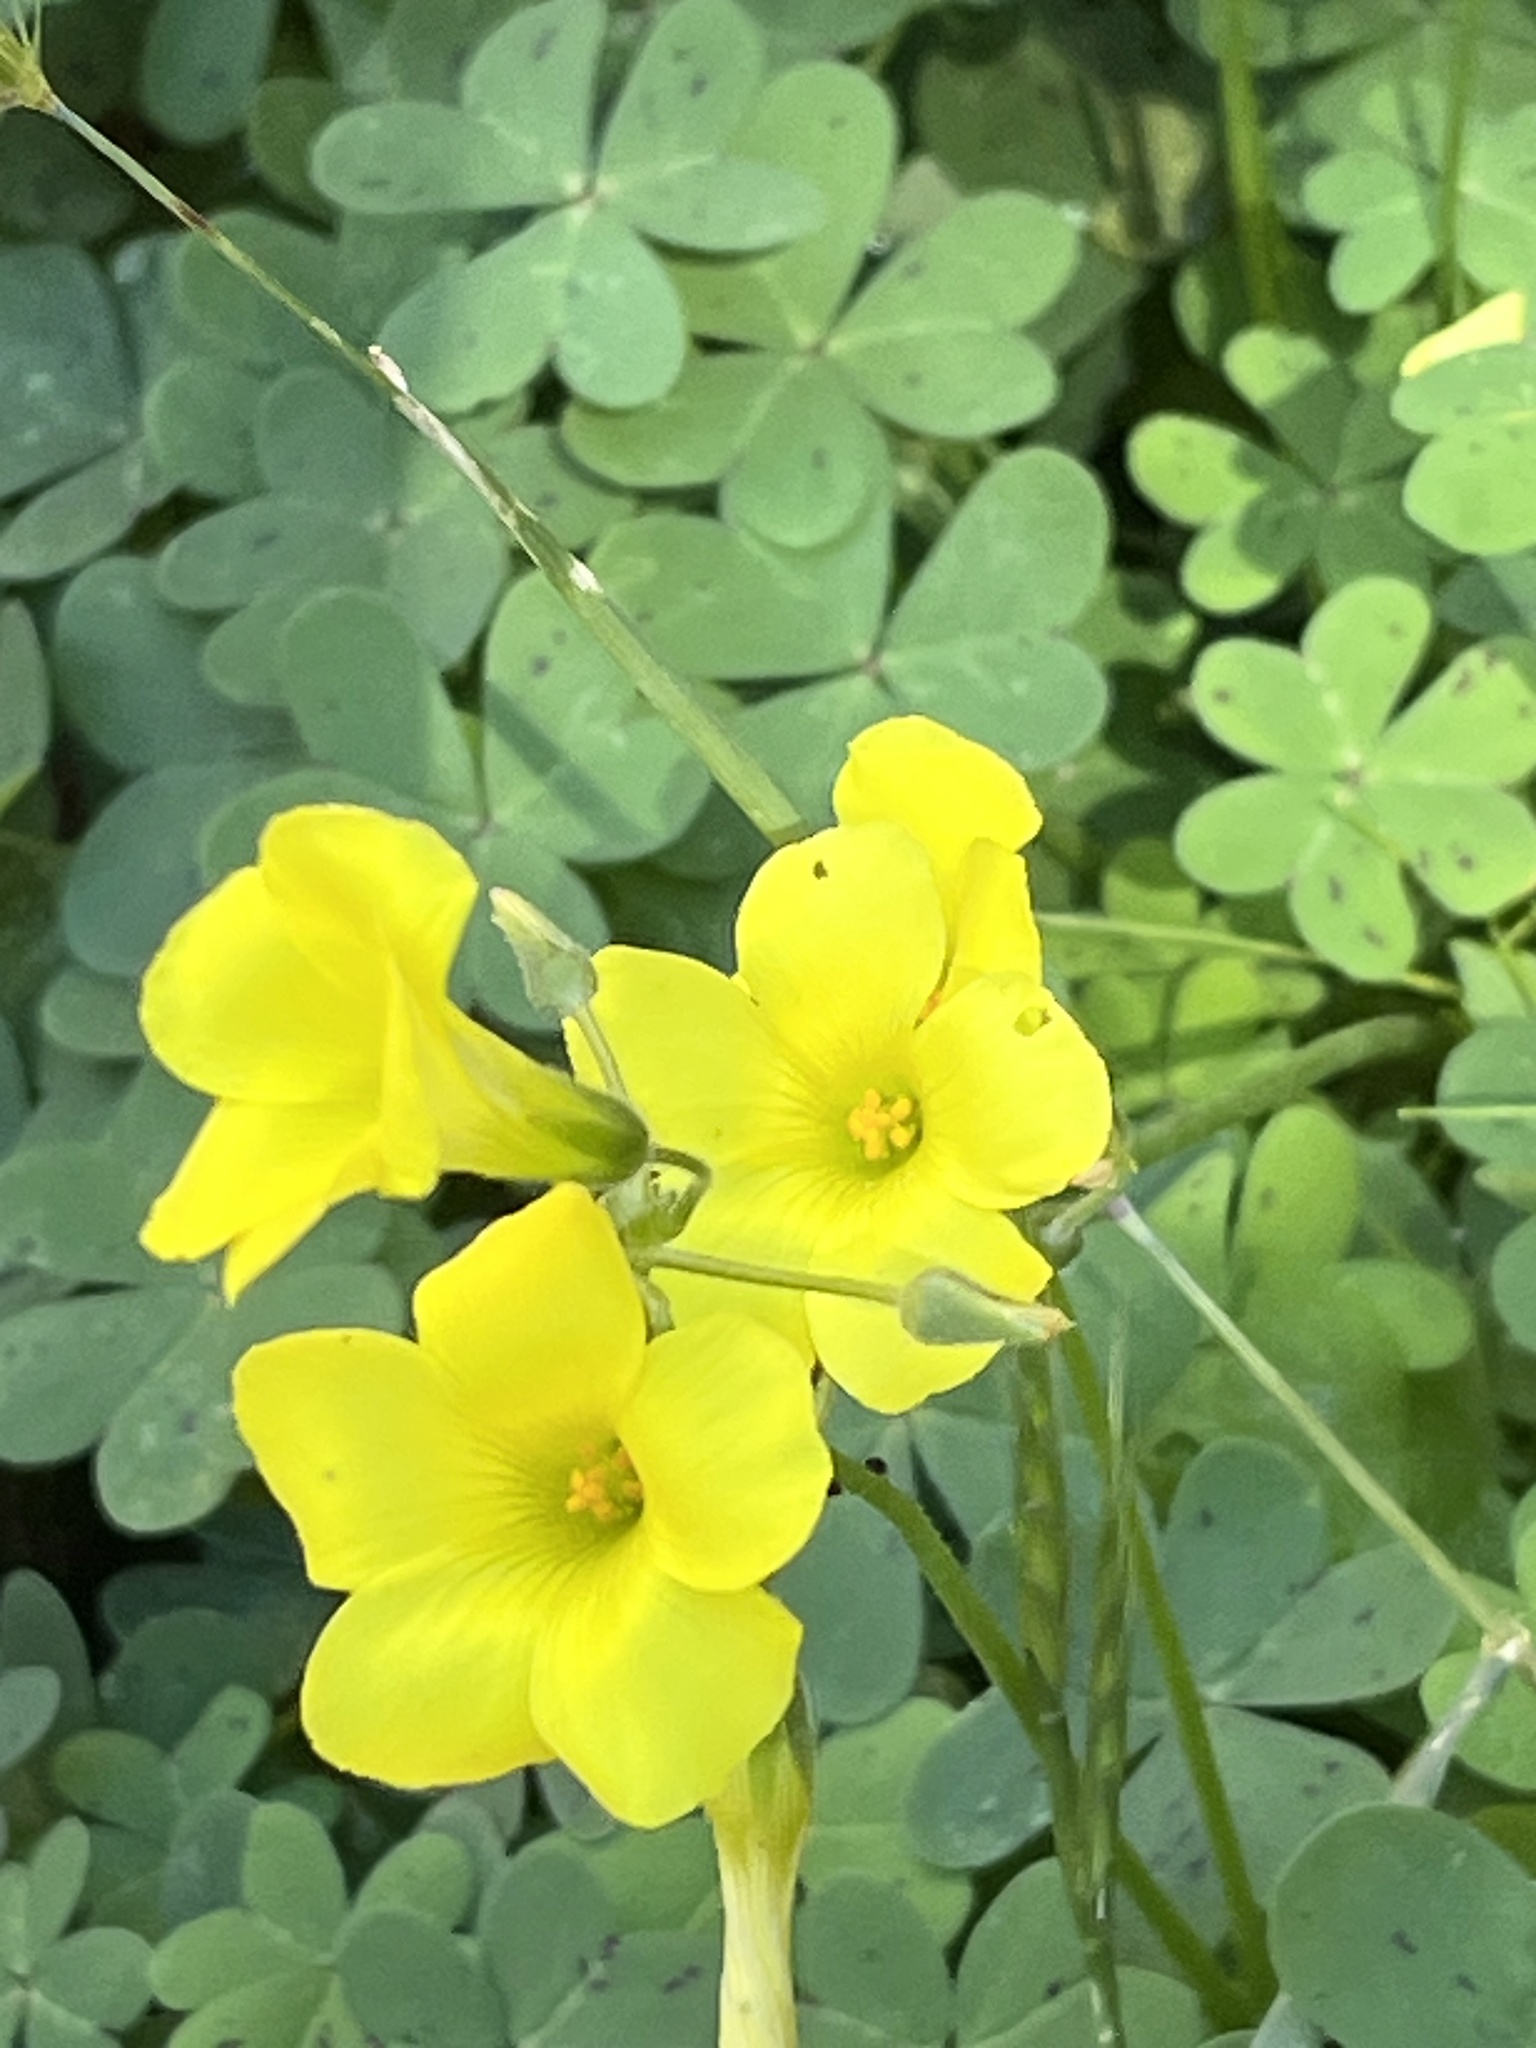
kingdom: Plantae
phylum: Tracheophyta
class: Magnoliopsida
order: Oxalidales
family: Oxalidaceae
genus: Oxalis
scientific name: Oxalis pes-caprae
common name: Bermuda-buttercup
